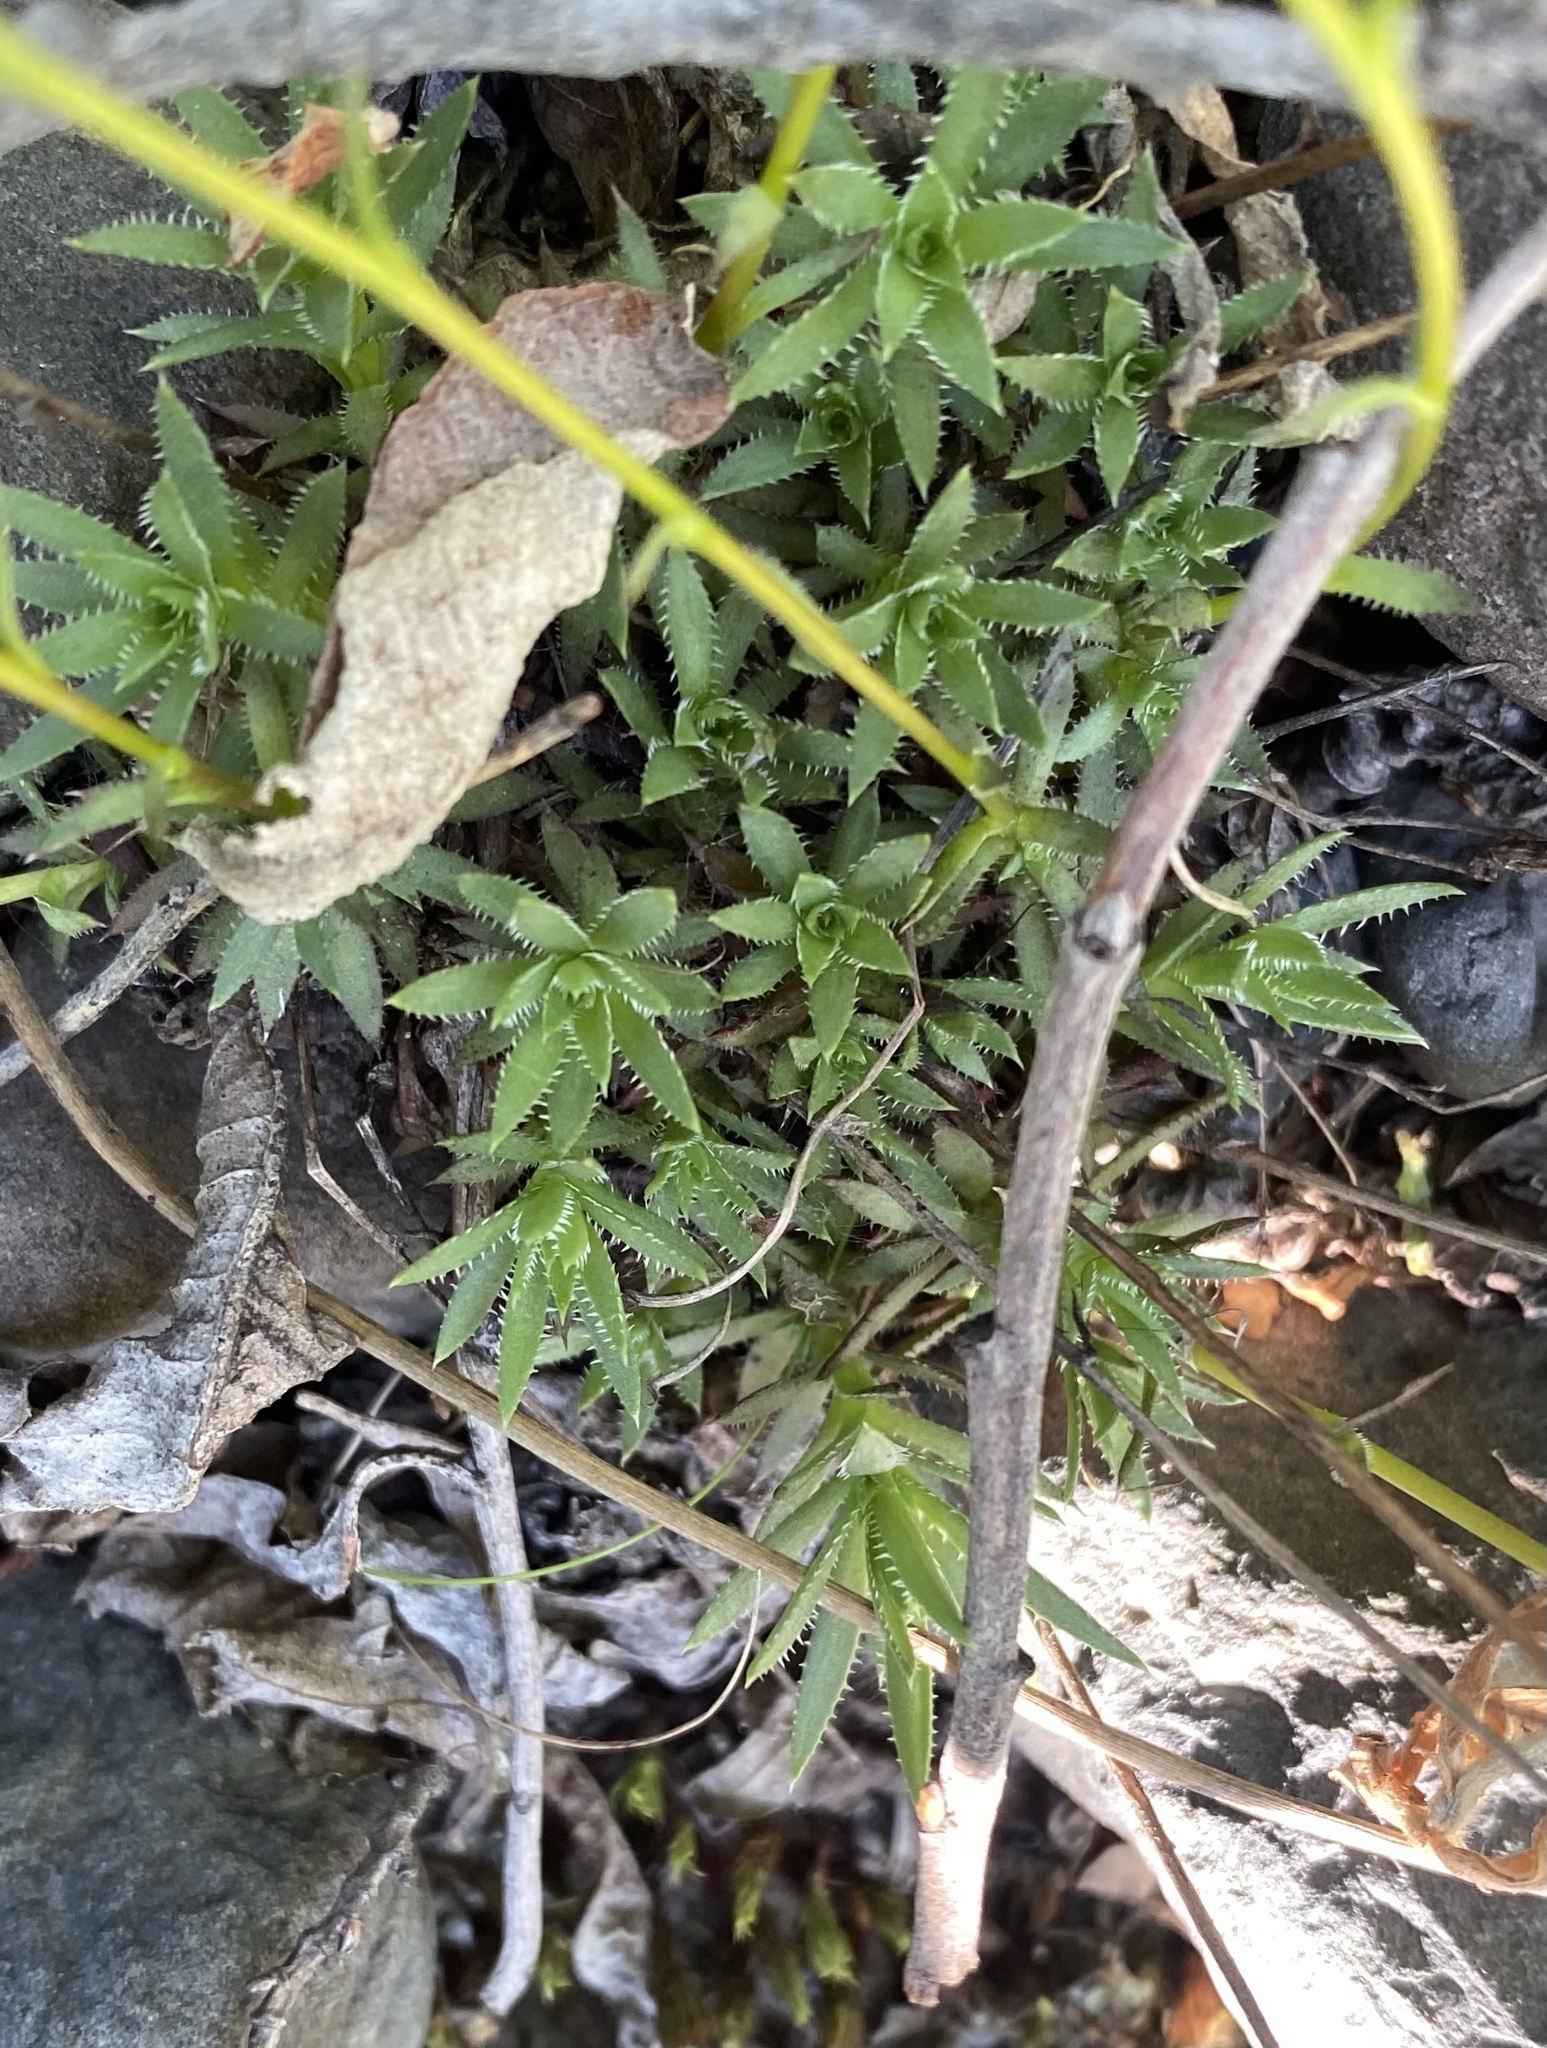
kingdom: Plantae
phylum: Tracheophyta
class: Magnoliopsida
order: Saxifragales
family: Saxifragaceae
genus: Saxifraga
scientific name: Saxifraga
